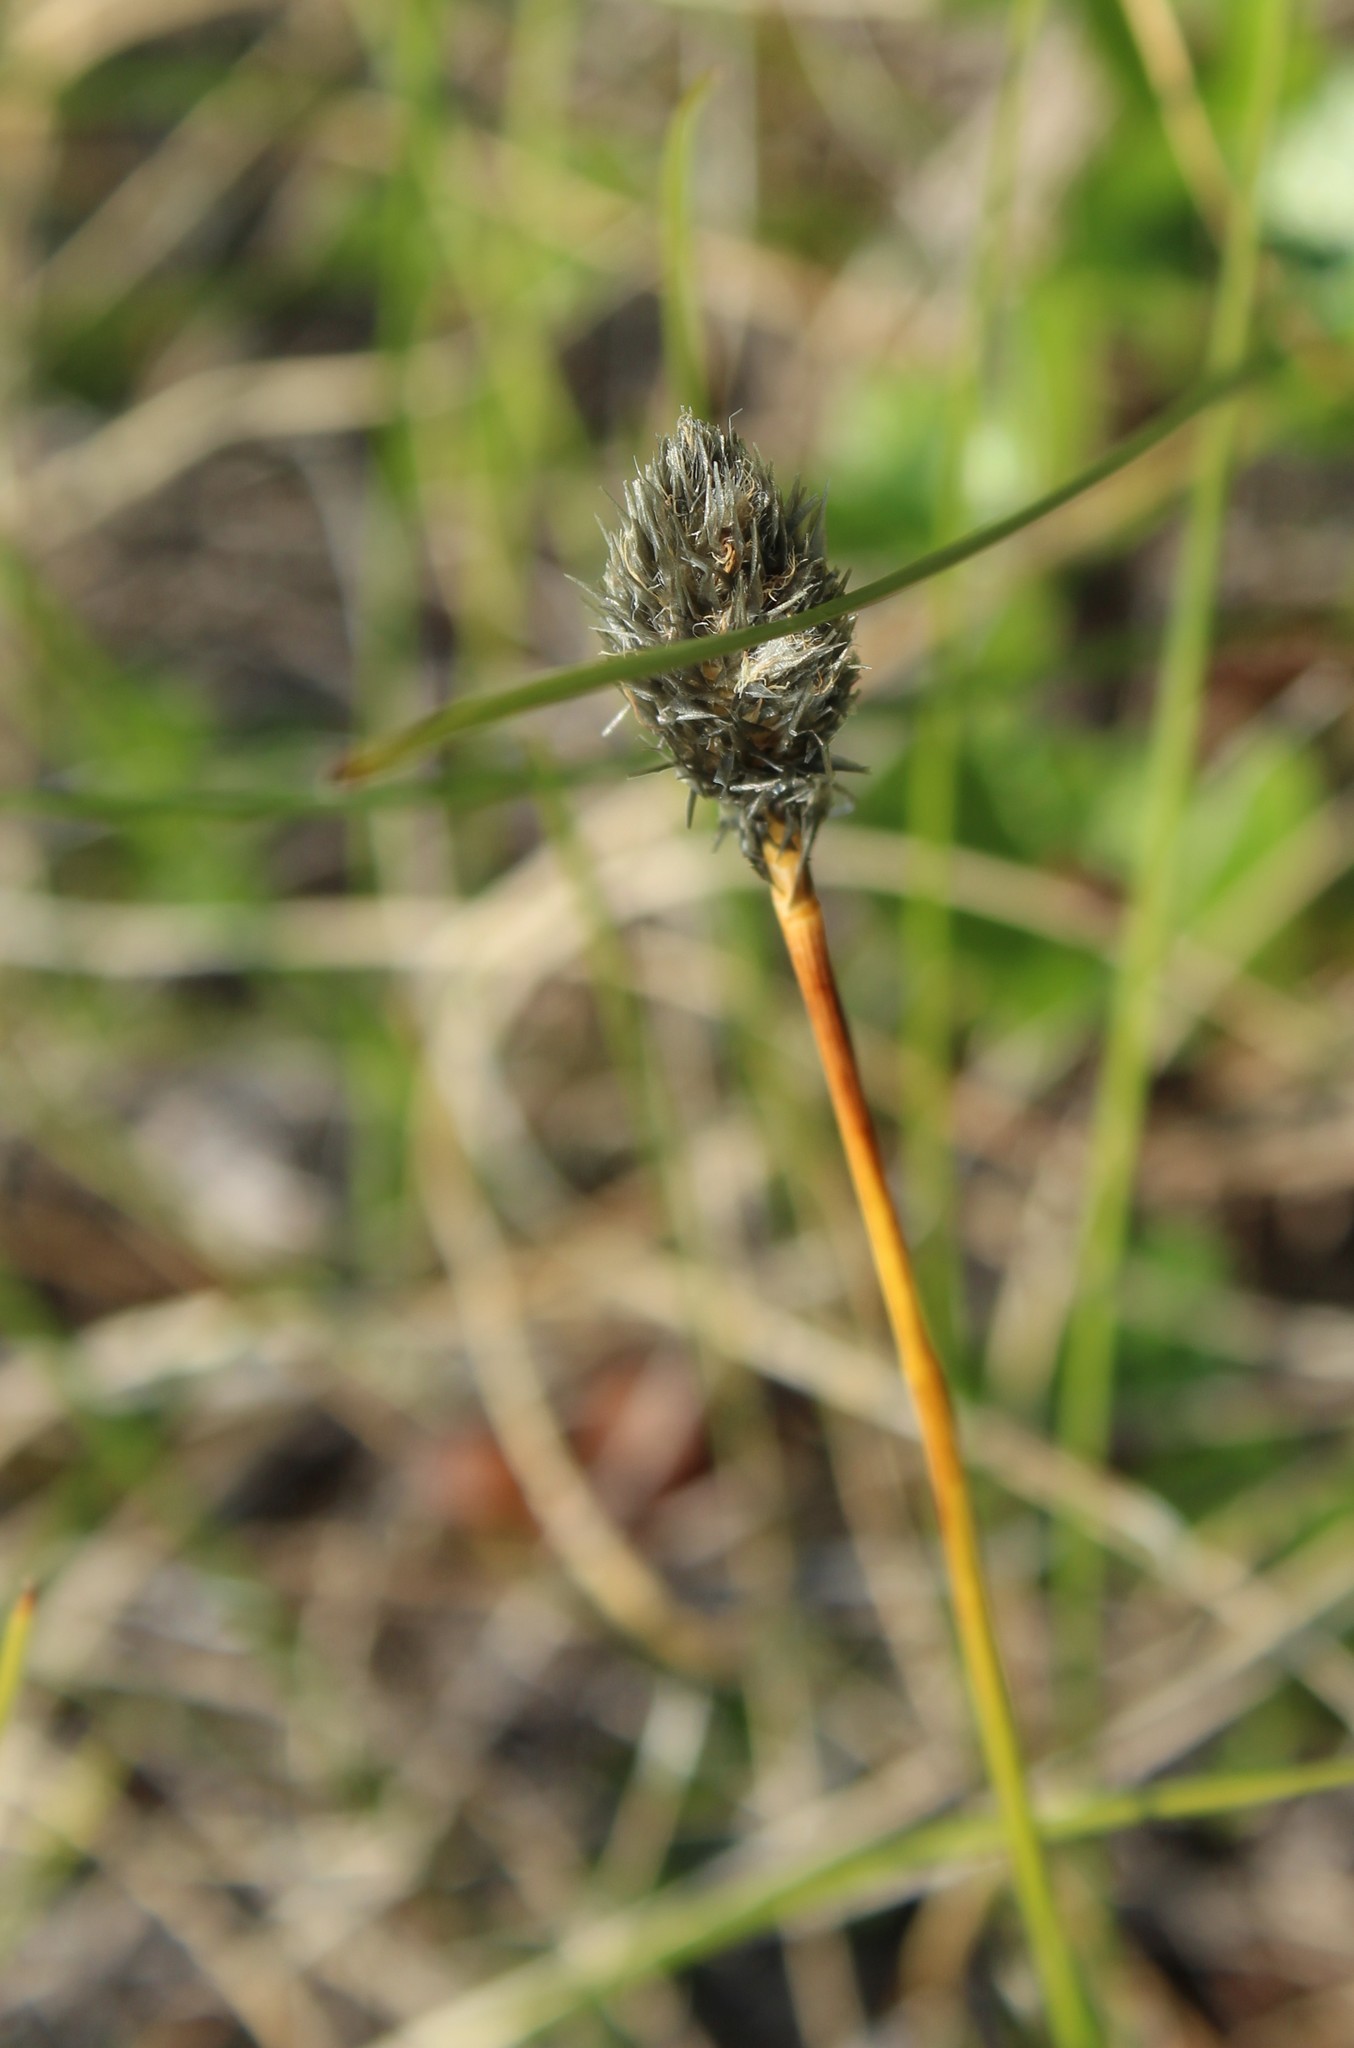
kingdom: Plantae
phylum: Tracheophyta
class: Liliopsida
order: Poales
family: Cyperaceae
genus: Eriophorum
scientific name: Eriophorum vaginatum
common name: Hare's-tail cottongrass
